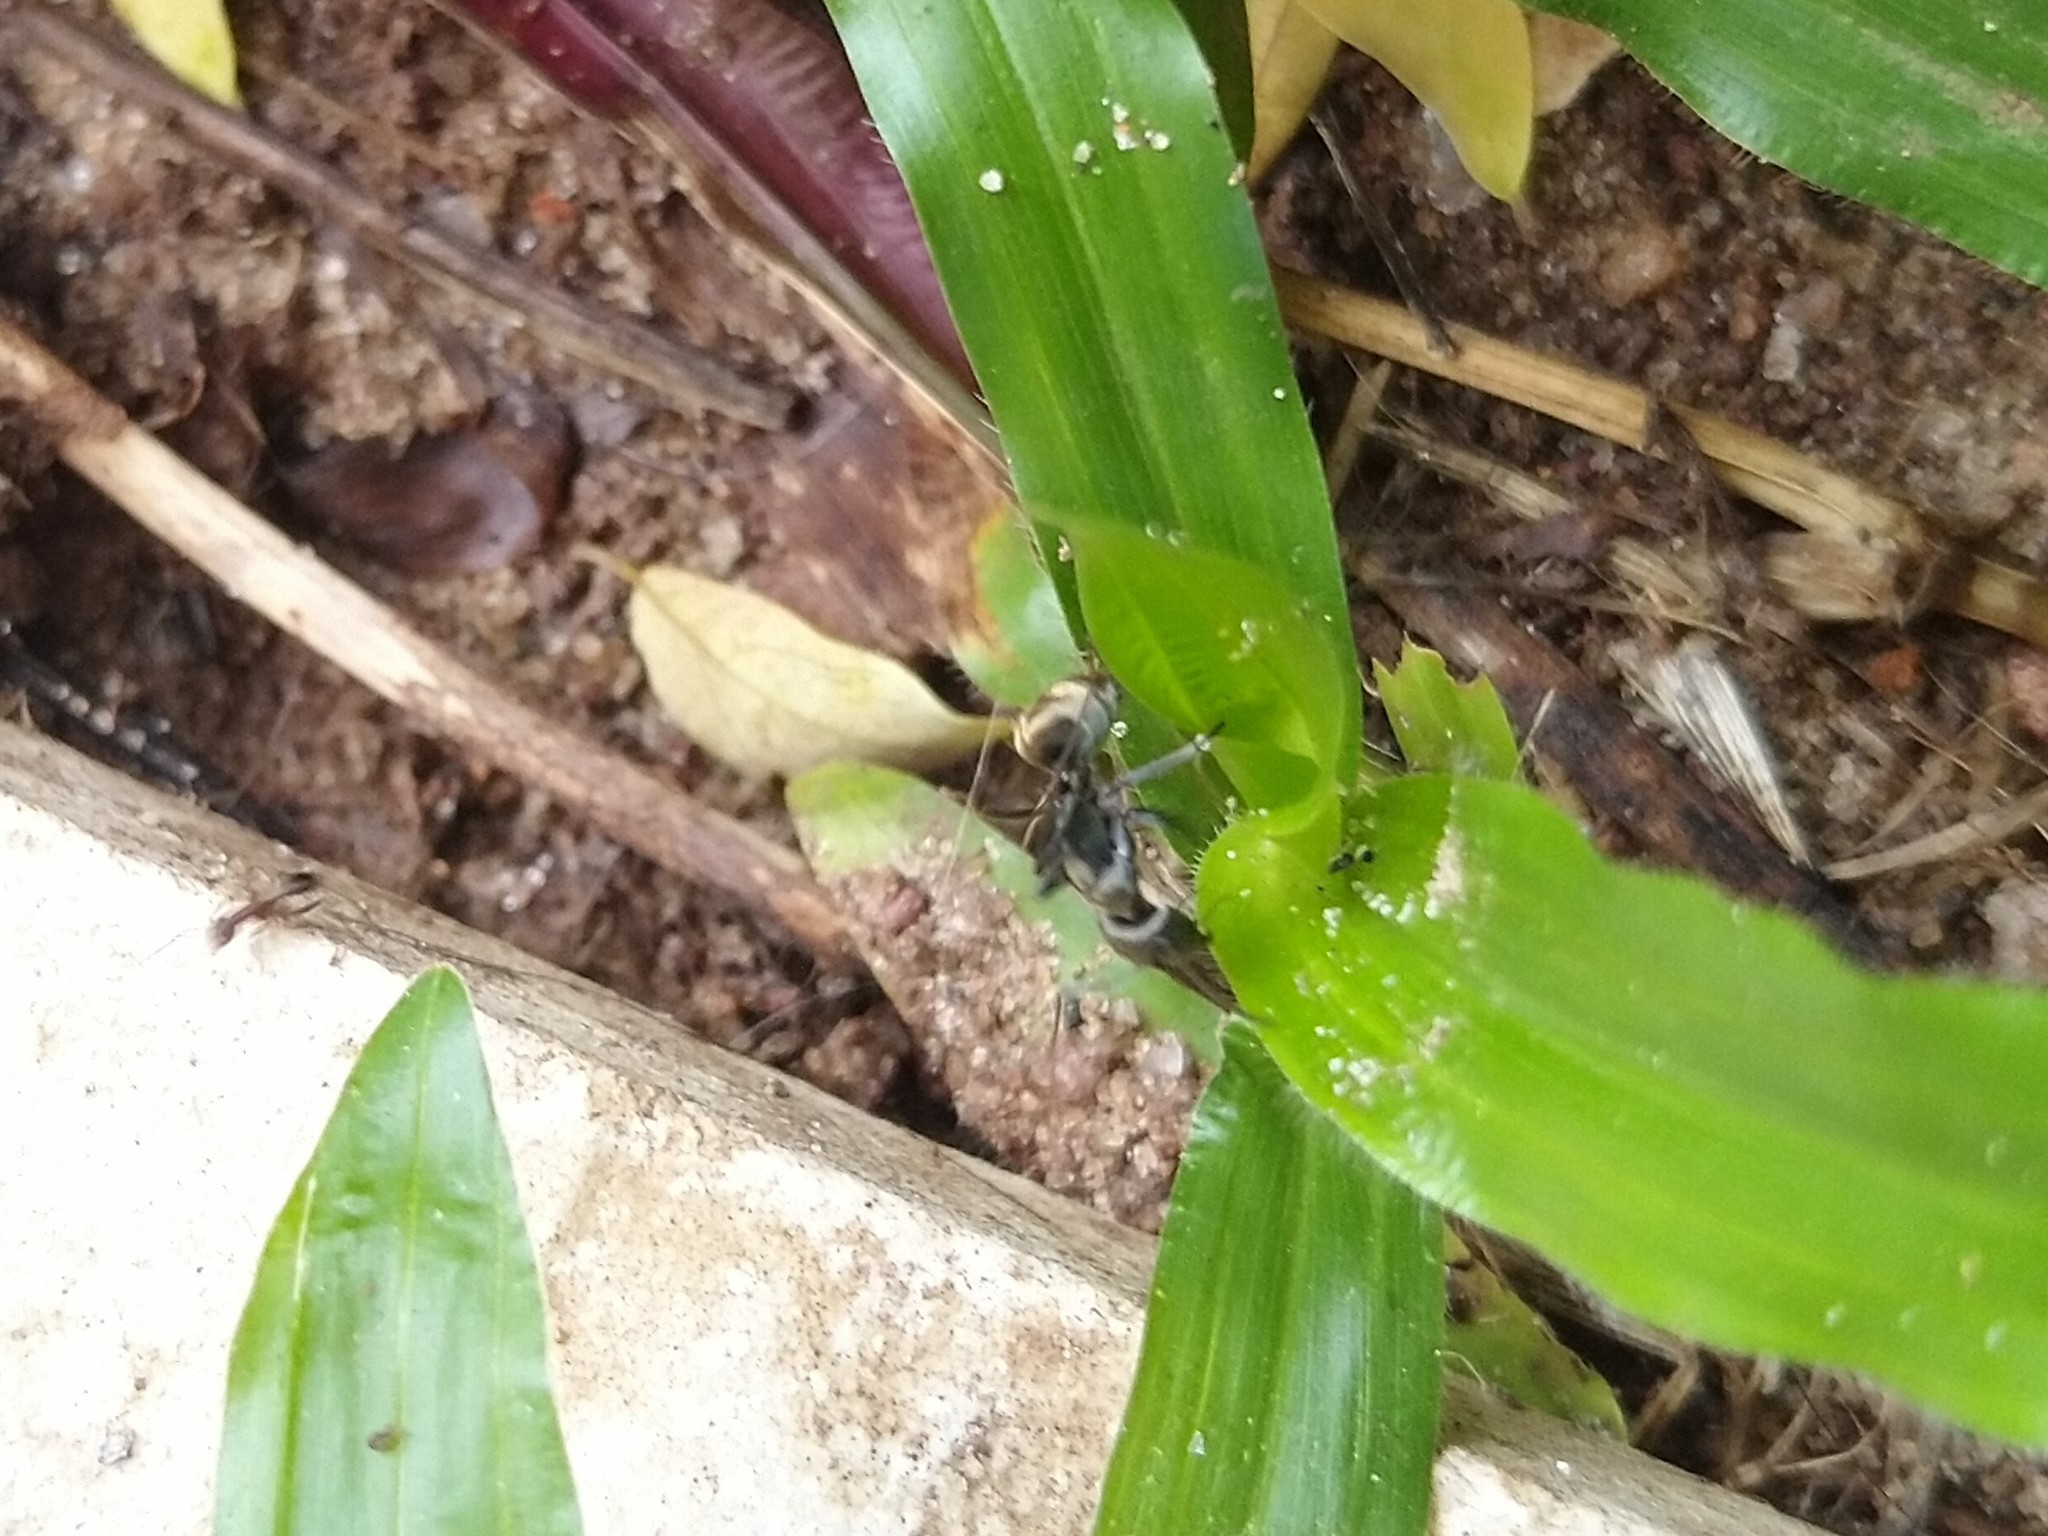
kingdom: Animalia
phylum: Arthropoda
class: Insecta
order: Hymenoptera
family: Formicidae
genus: Camponotus
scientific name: Camponotus parius
